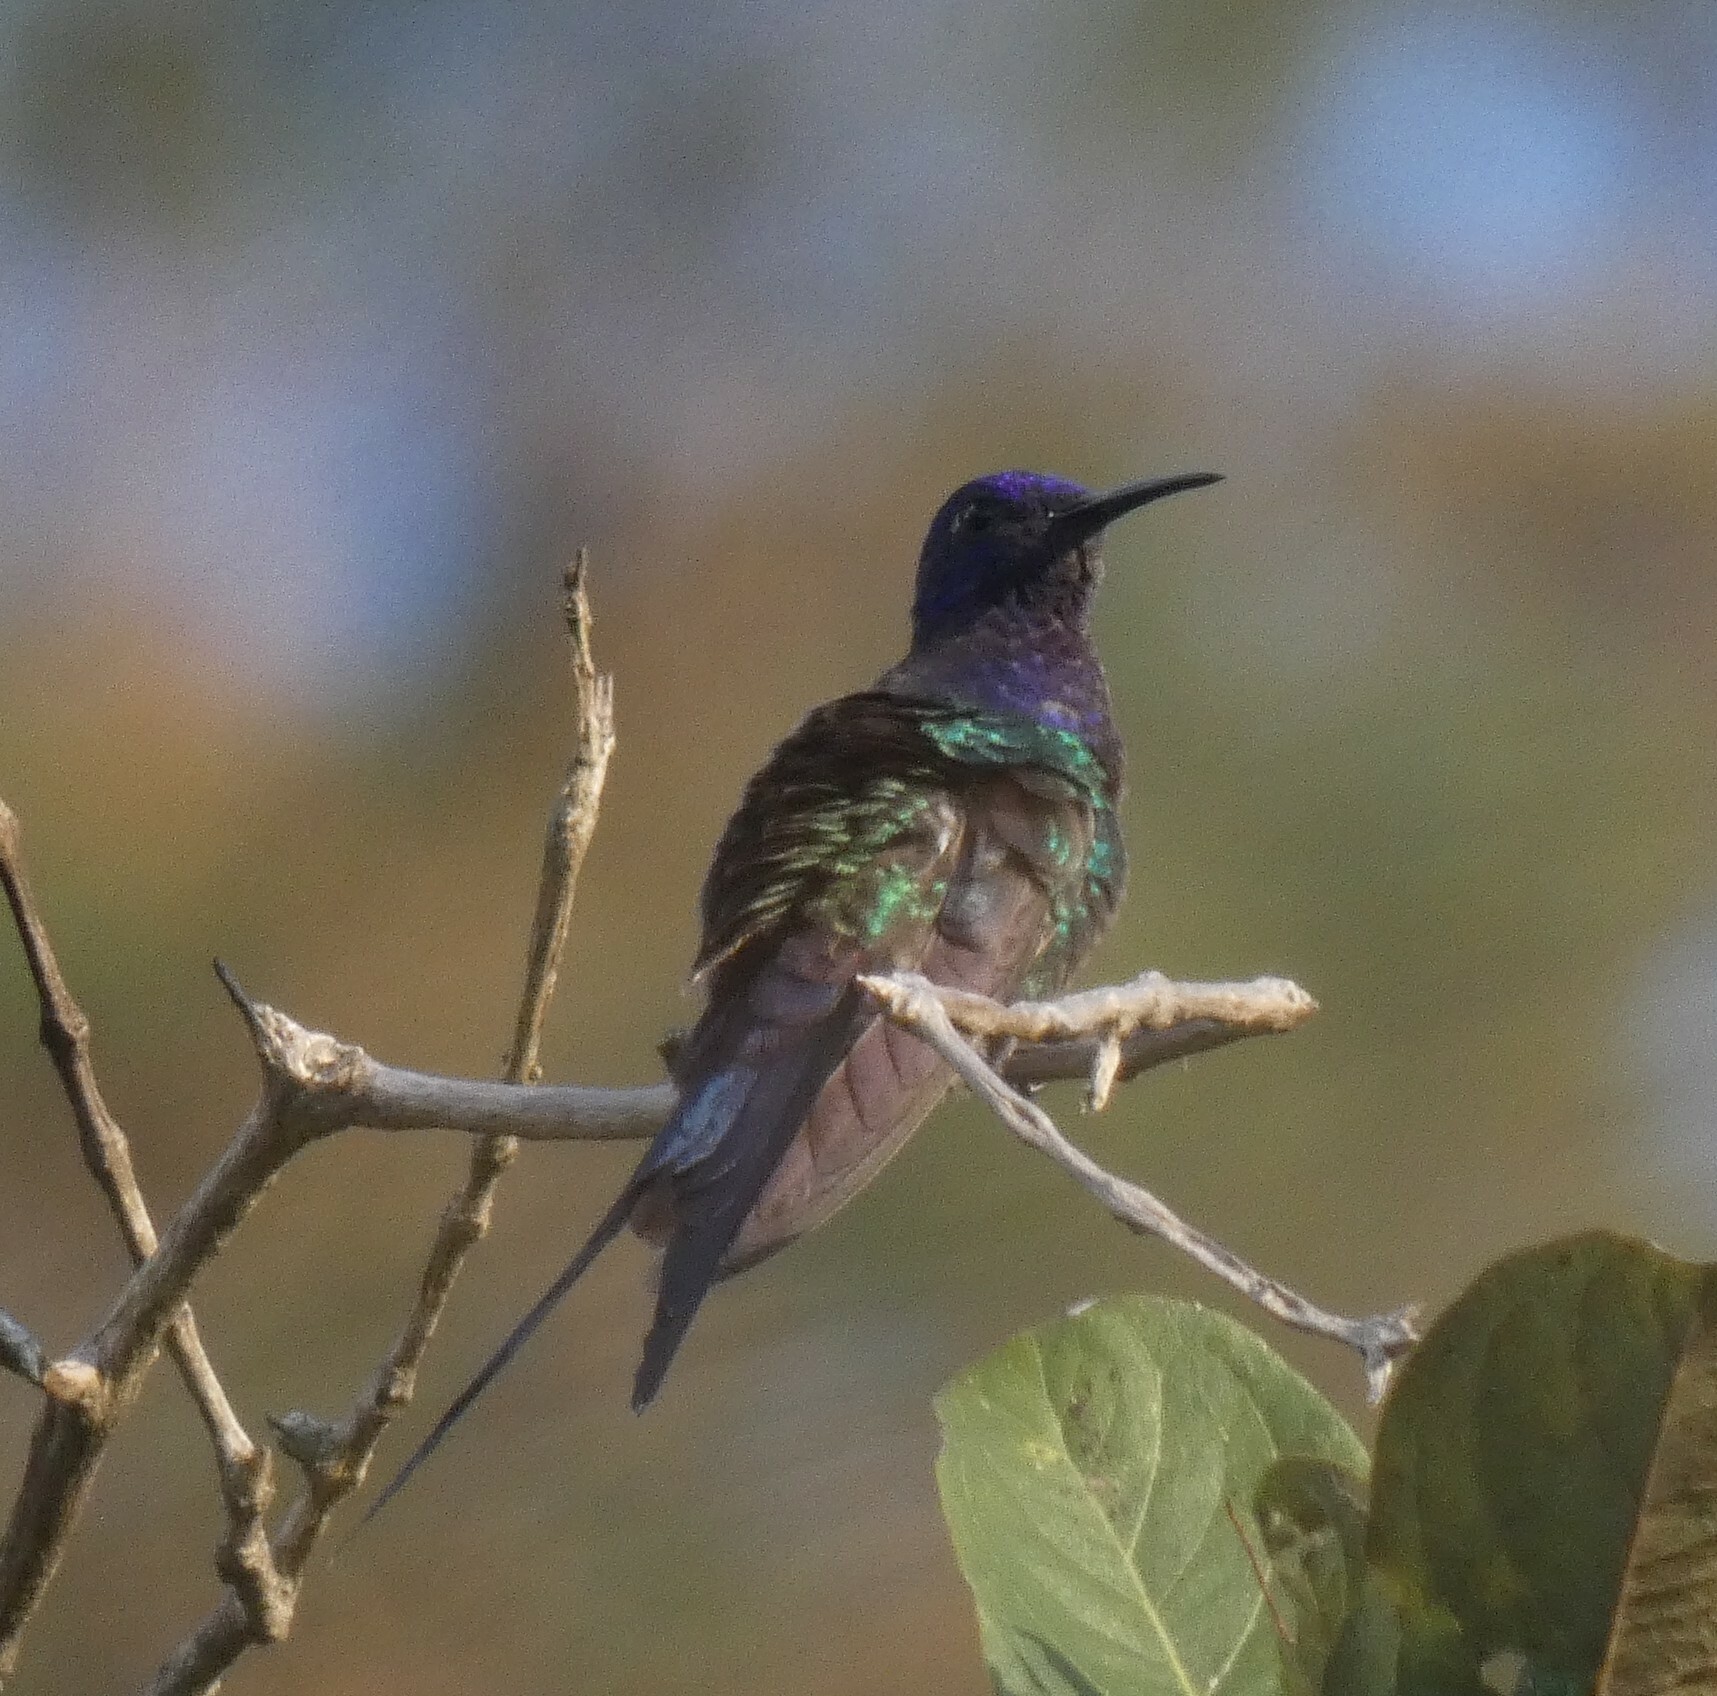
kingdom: Animalia
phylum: Chordata
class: Aves
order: Apodiformes
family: Trochilidae
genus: Eupetomena
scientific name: Eupetomena macroura
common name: Swallow-tailed hummingbird
